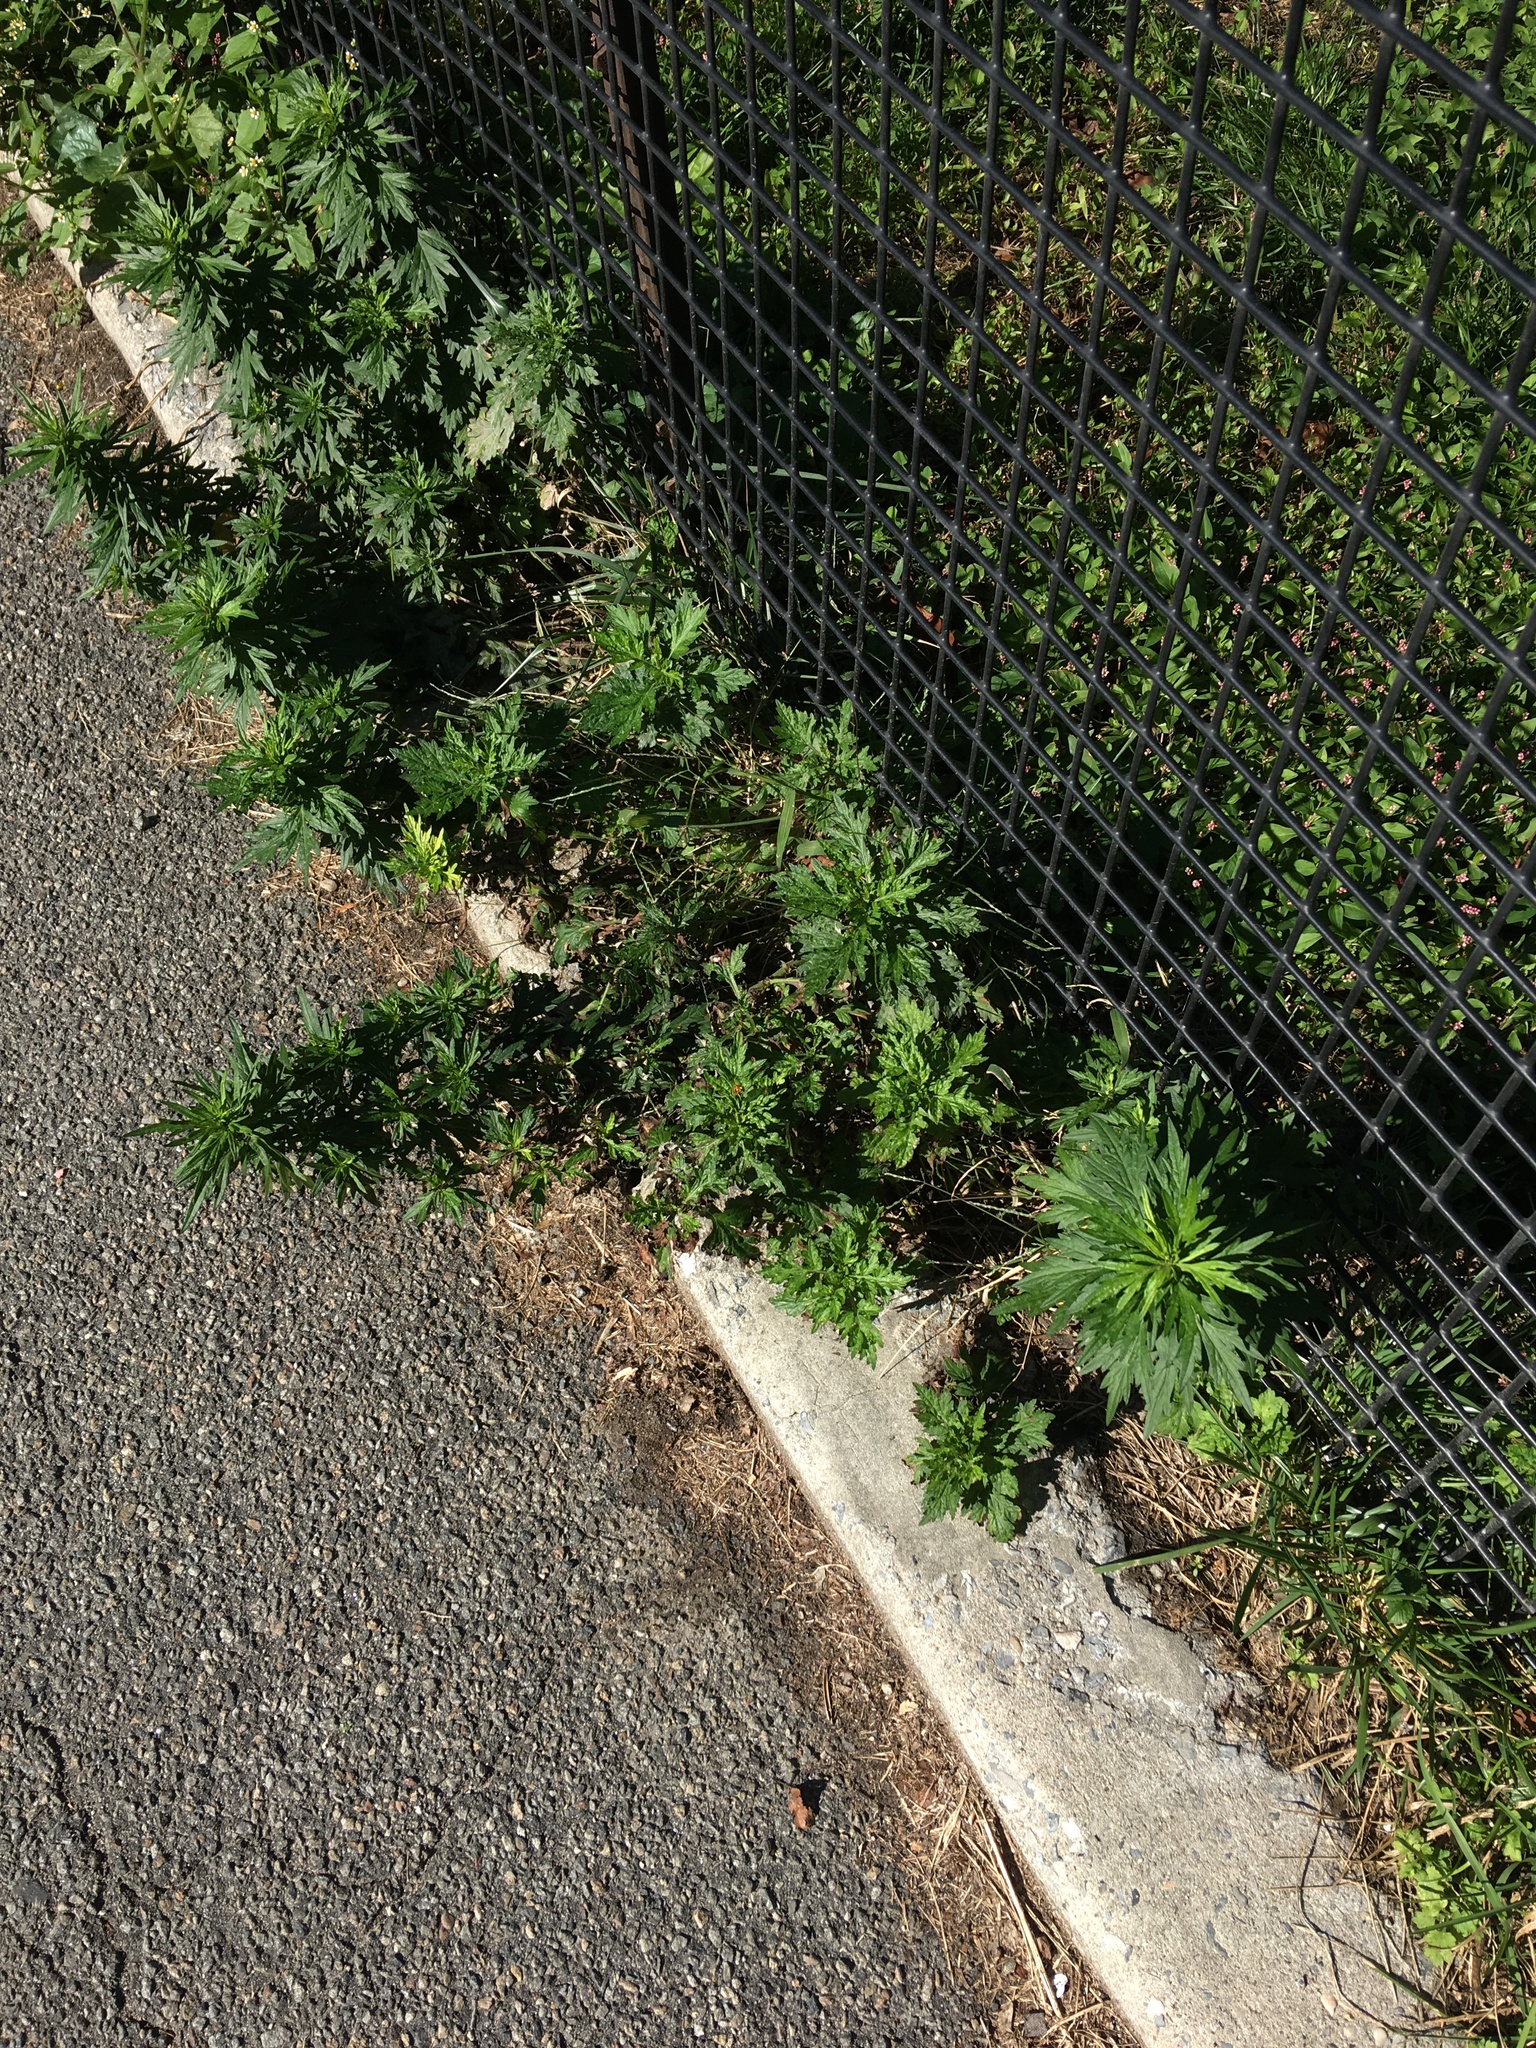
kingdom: Plantae
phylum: Tracheophyta
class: Magnoliopsida
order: Asterales
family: Asteraceae
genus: Artemisia
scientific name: Artemisia vulgaris
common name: Mugwort
